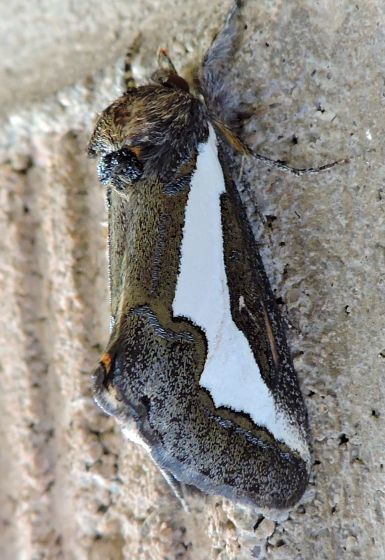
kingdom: Animalia
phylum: Arthropoda
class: Insecta
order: Lepidoptera
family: Noctuidae
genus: Euscirrhopterus
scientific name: Euscirrhopterus cosyra
